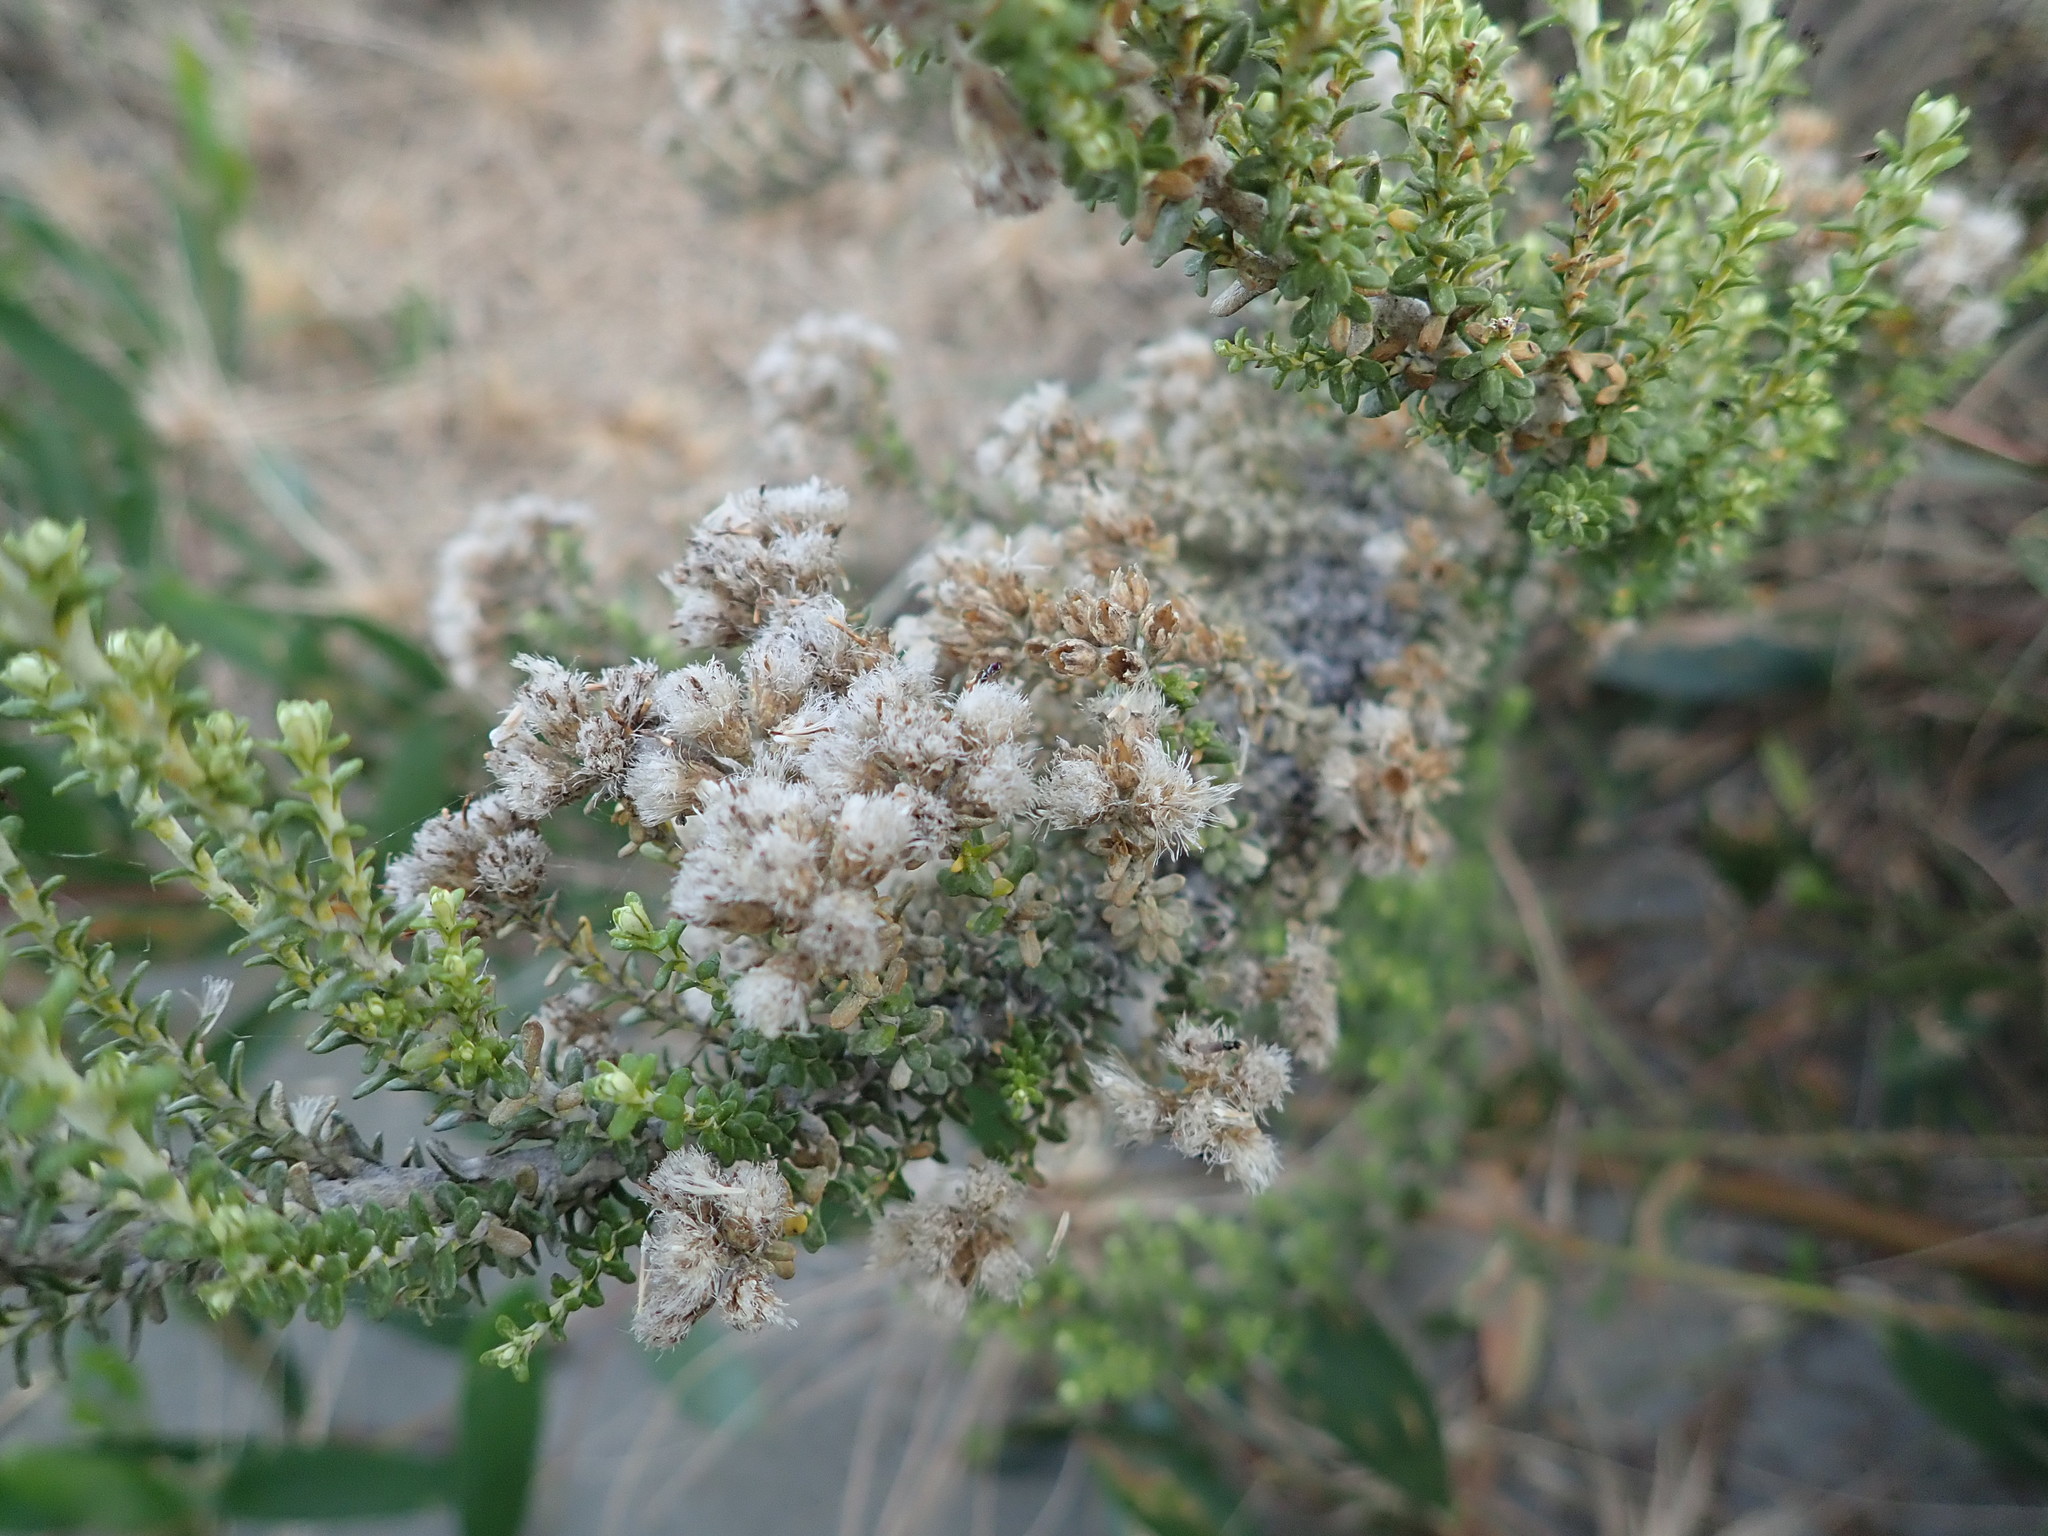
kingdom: Plantae
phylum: Tracheophyta
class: Magnoliopsida
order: Asterales
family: Asteraceae
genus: Ozothamnus
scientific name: Ozothamnus leptophyllus
